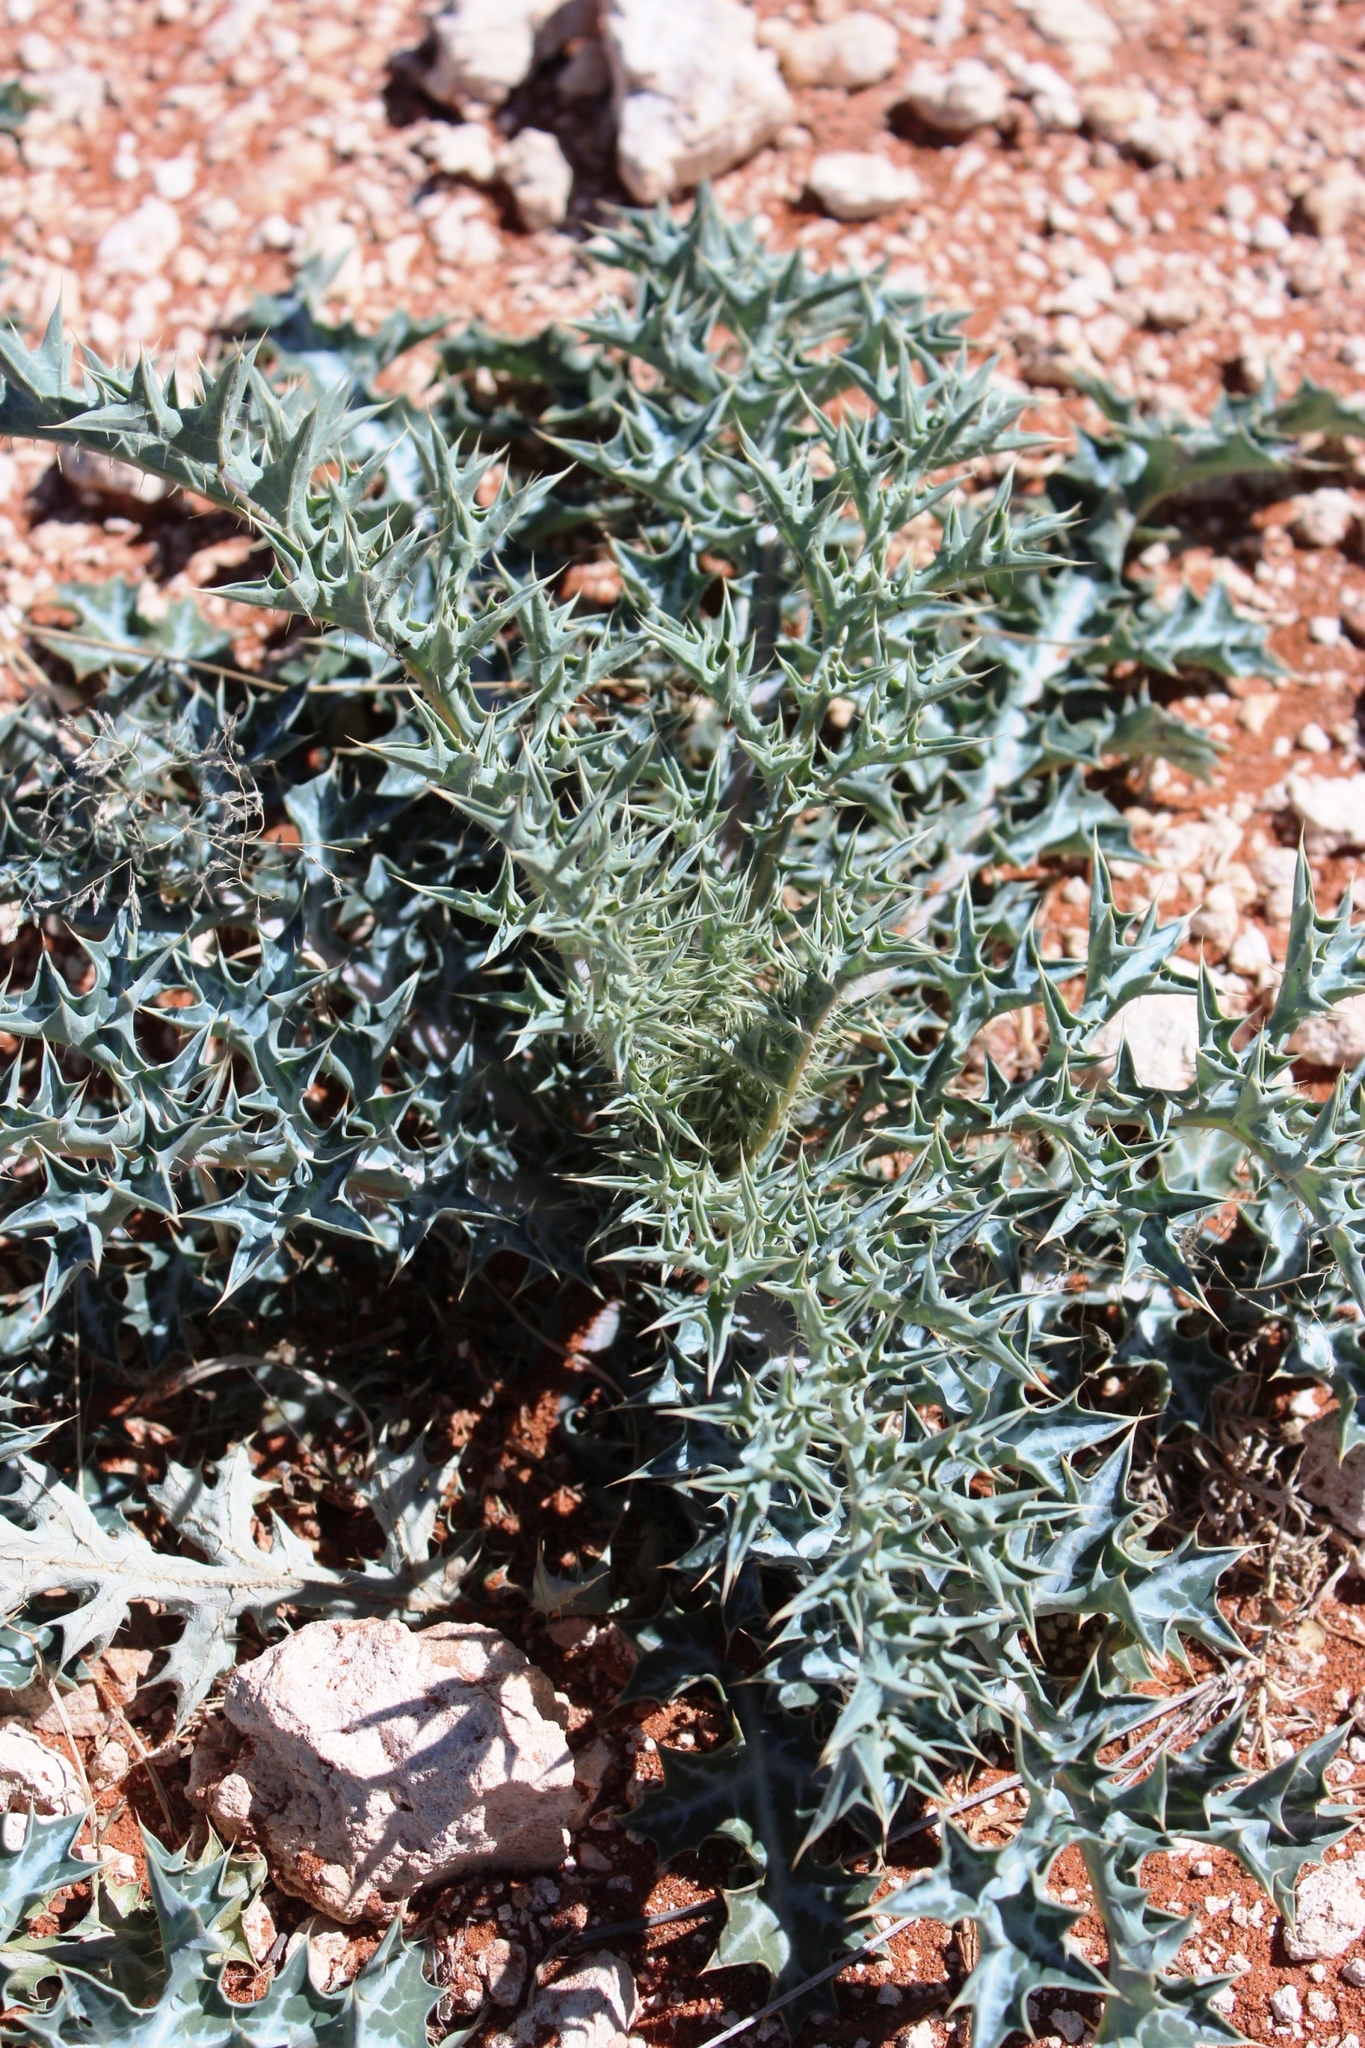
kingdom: Plantae
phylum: Tracheophyta
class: Magnoliopsida
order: Ranunculales
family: Papaveraceae
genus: Argemone
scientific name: Argemone ochroleuca
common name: White-flower mexican-poppy
